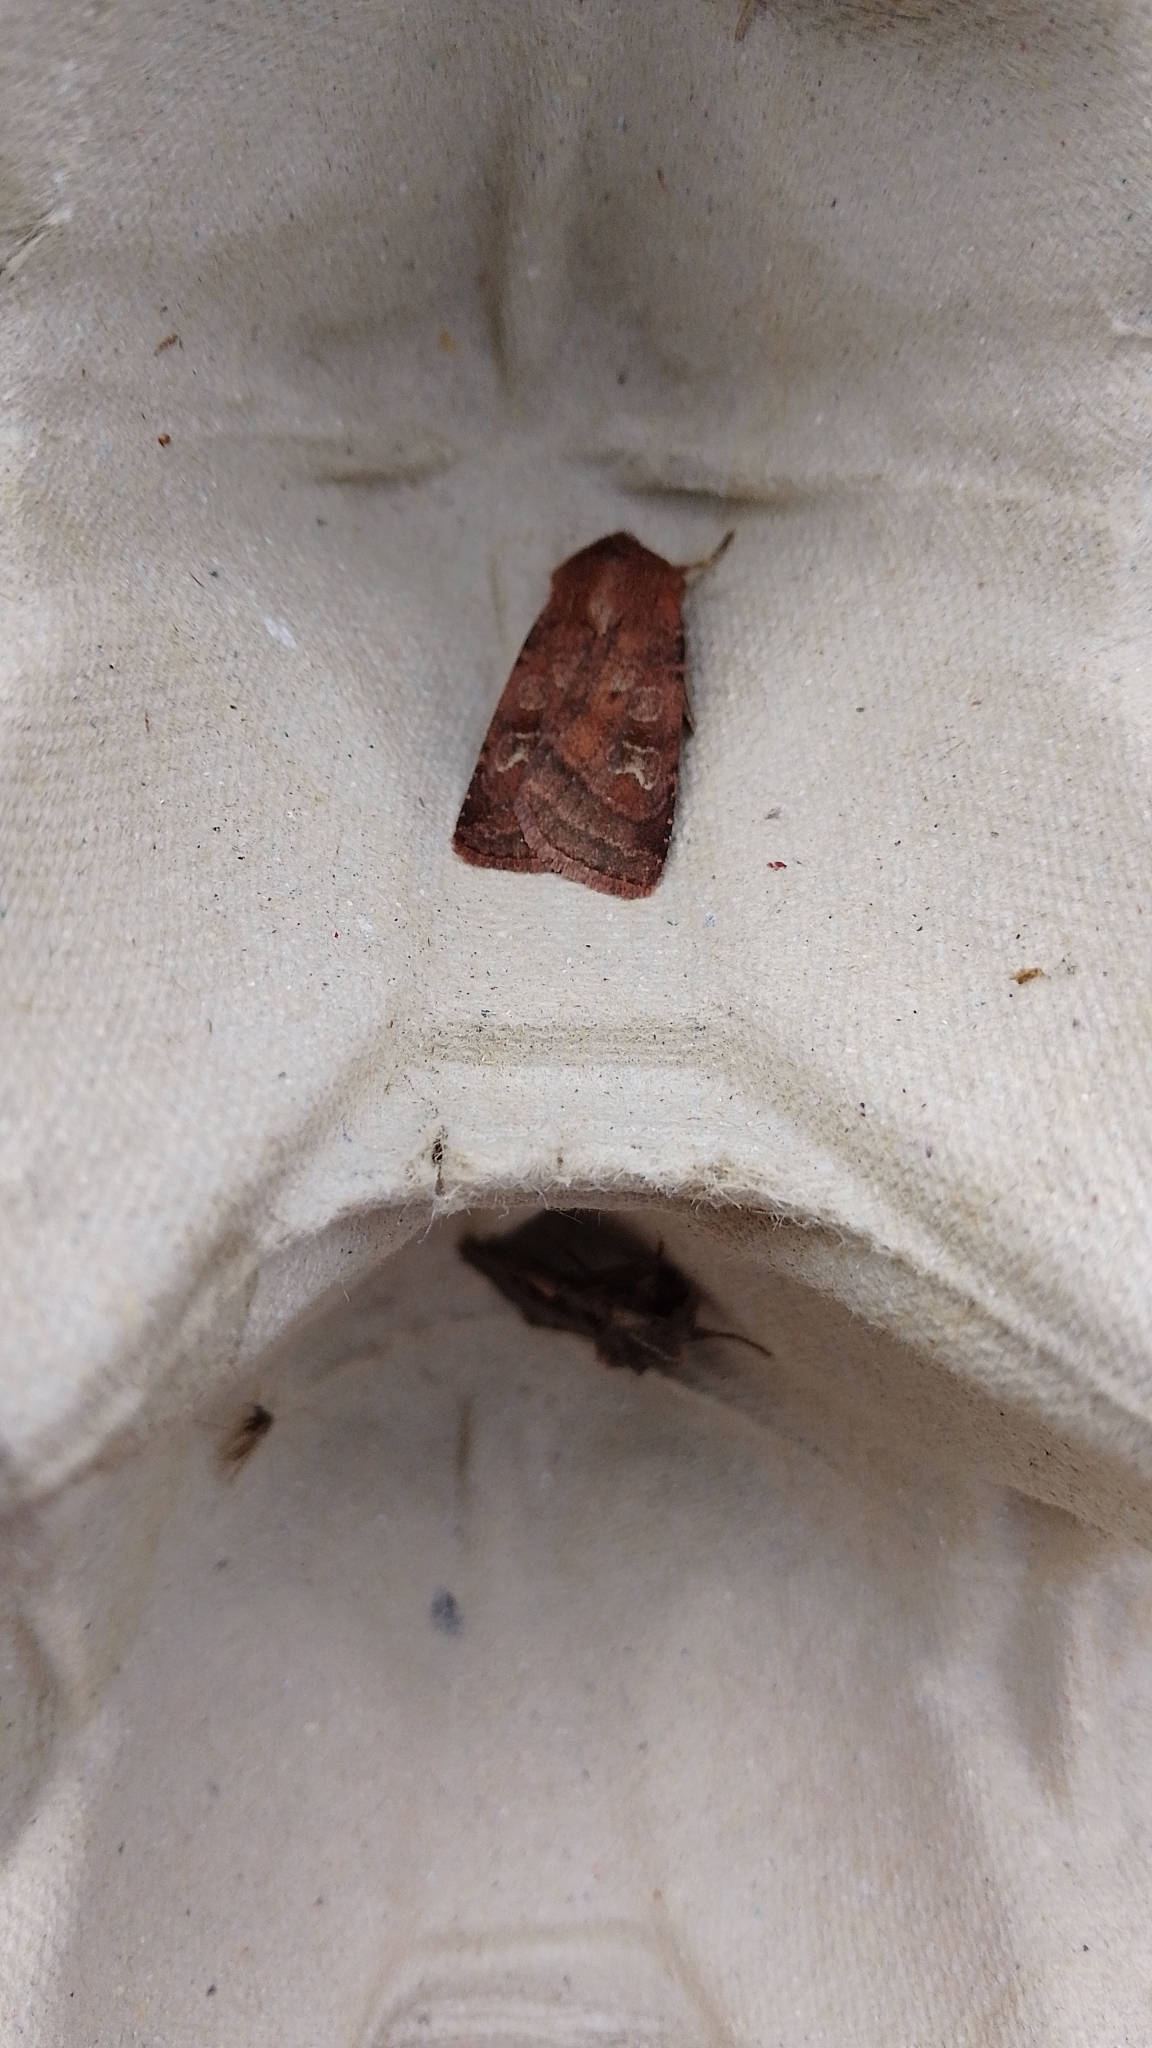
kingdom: Animalia
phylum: Arthropoda
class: Insecta
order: Lepidoptera
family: Noctuidae
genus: Diarsia
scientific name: Diarsia rubi
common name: Small square-spot
